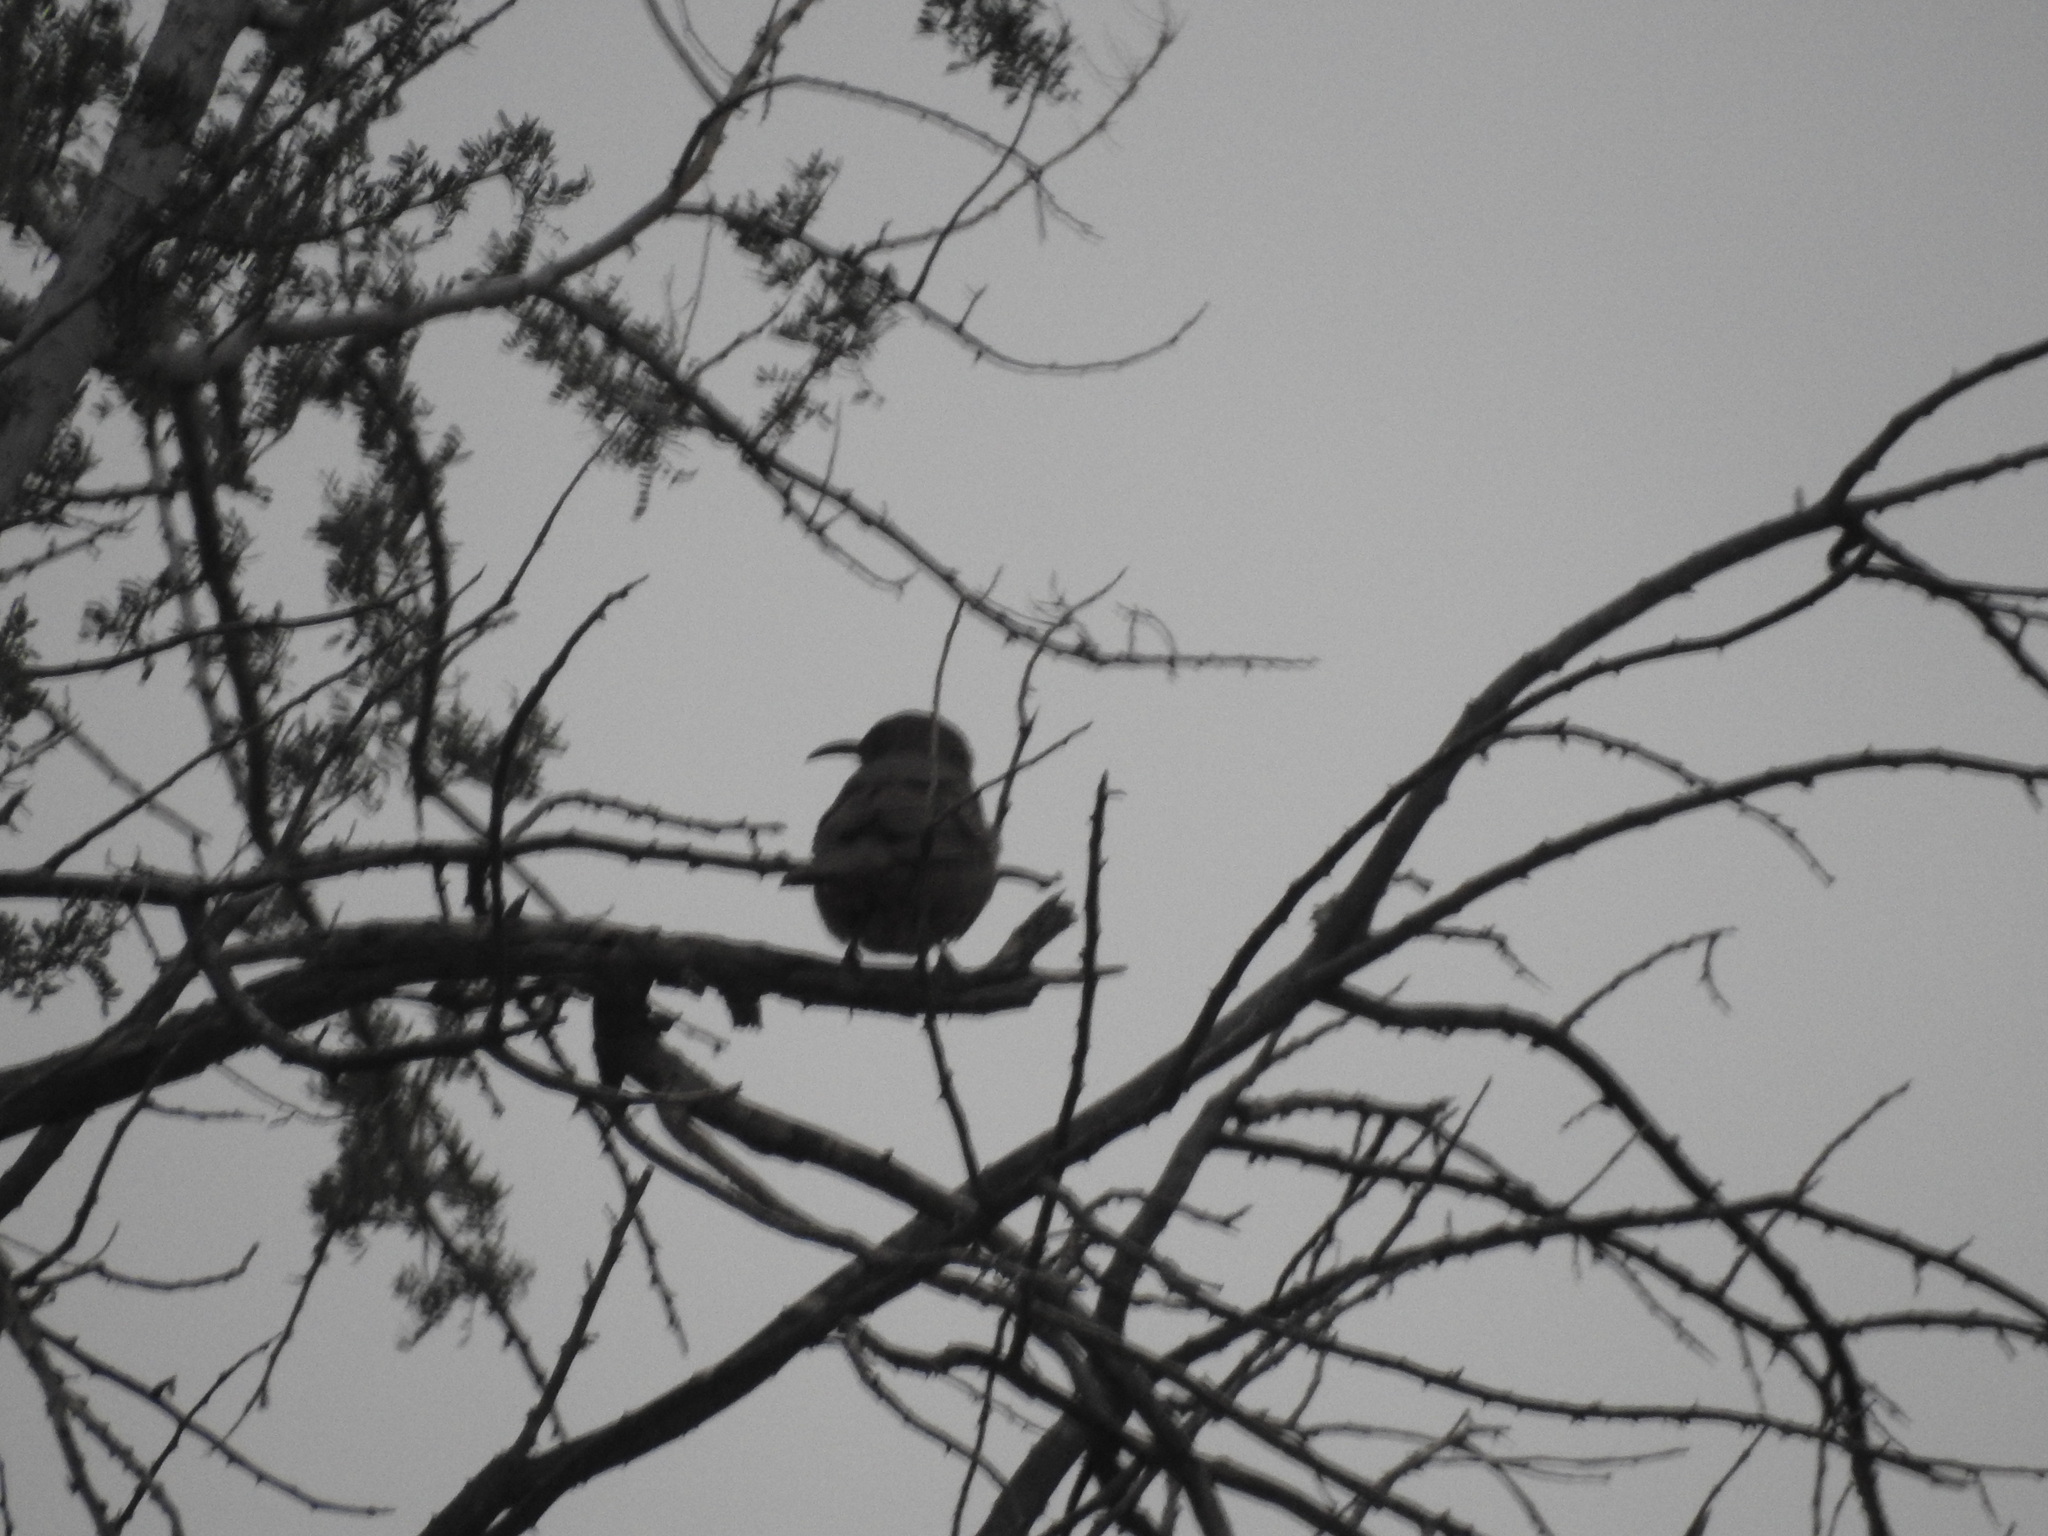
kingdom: Animalia
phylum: Chordata
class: Aves
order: Passeriformes
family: Mimidae
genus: Toxostoma
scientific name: Toxostoma curvirostre
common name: Curve-billed thrasher
